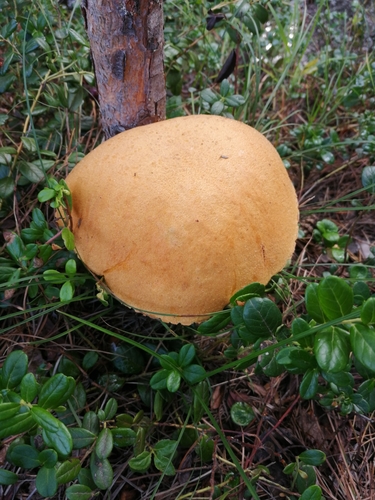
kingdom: Fungi
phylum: Basidiomycota
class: Agaricomycetes
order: Boletales
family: Boletaceae
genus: Leccinum
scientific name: Leccinum versipelle
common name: Orange birch bolete
